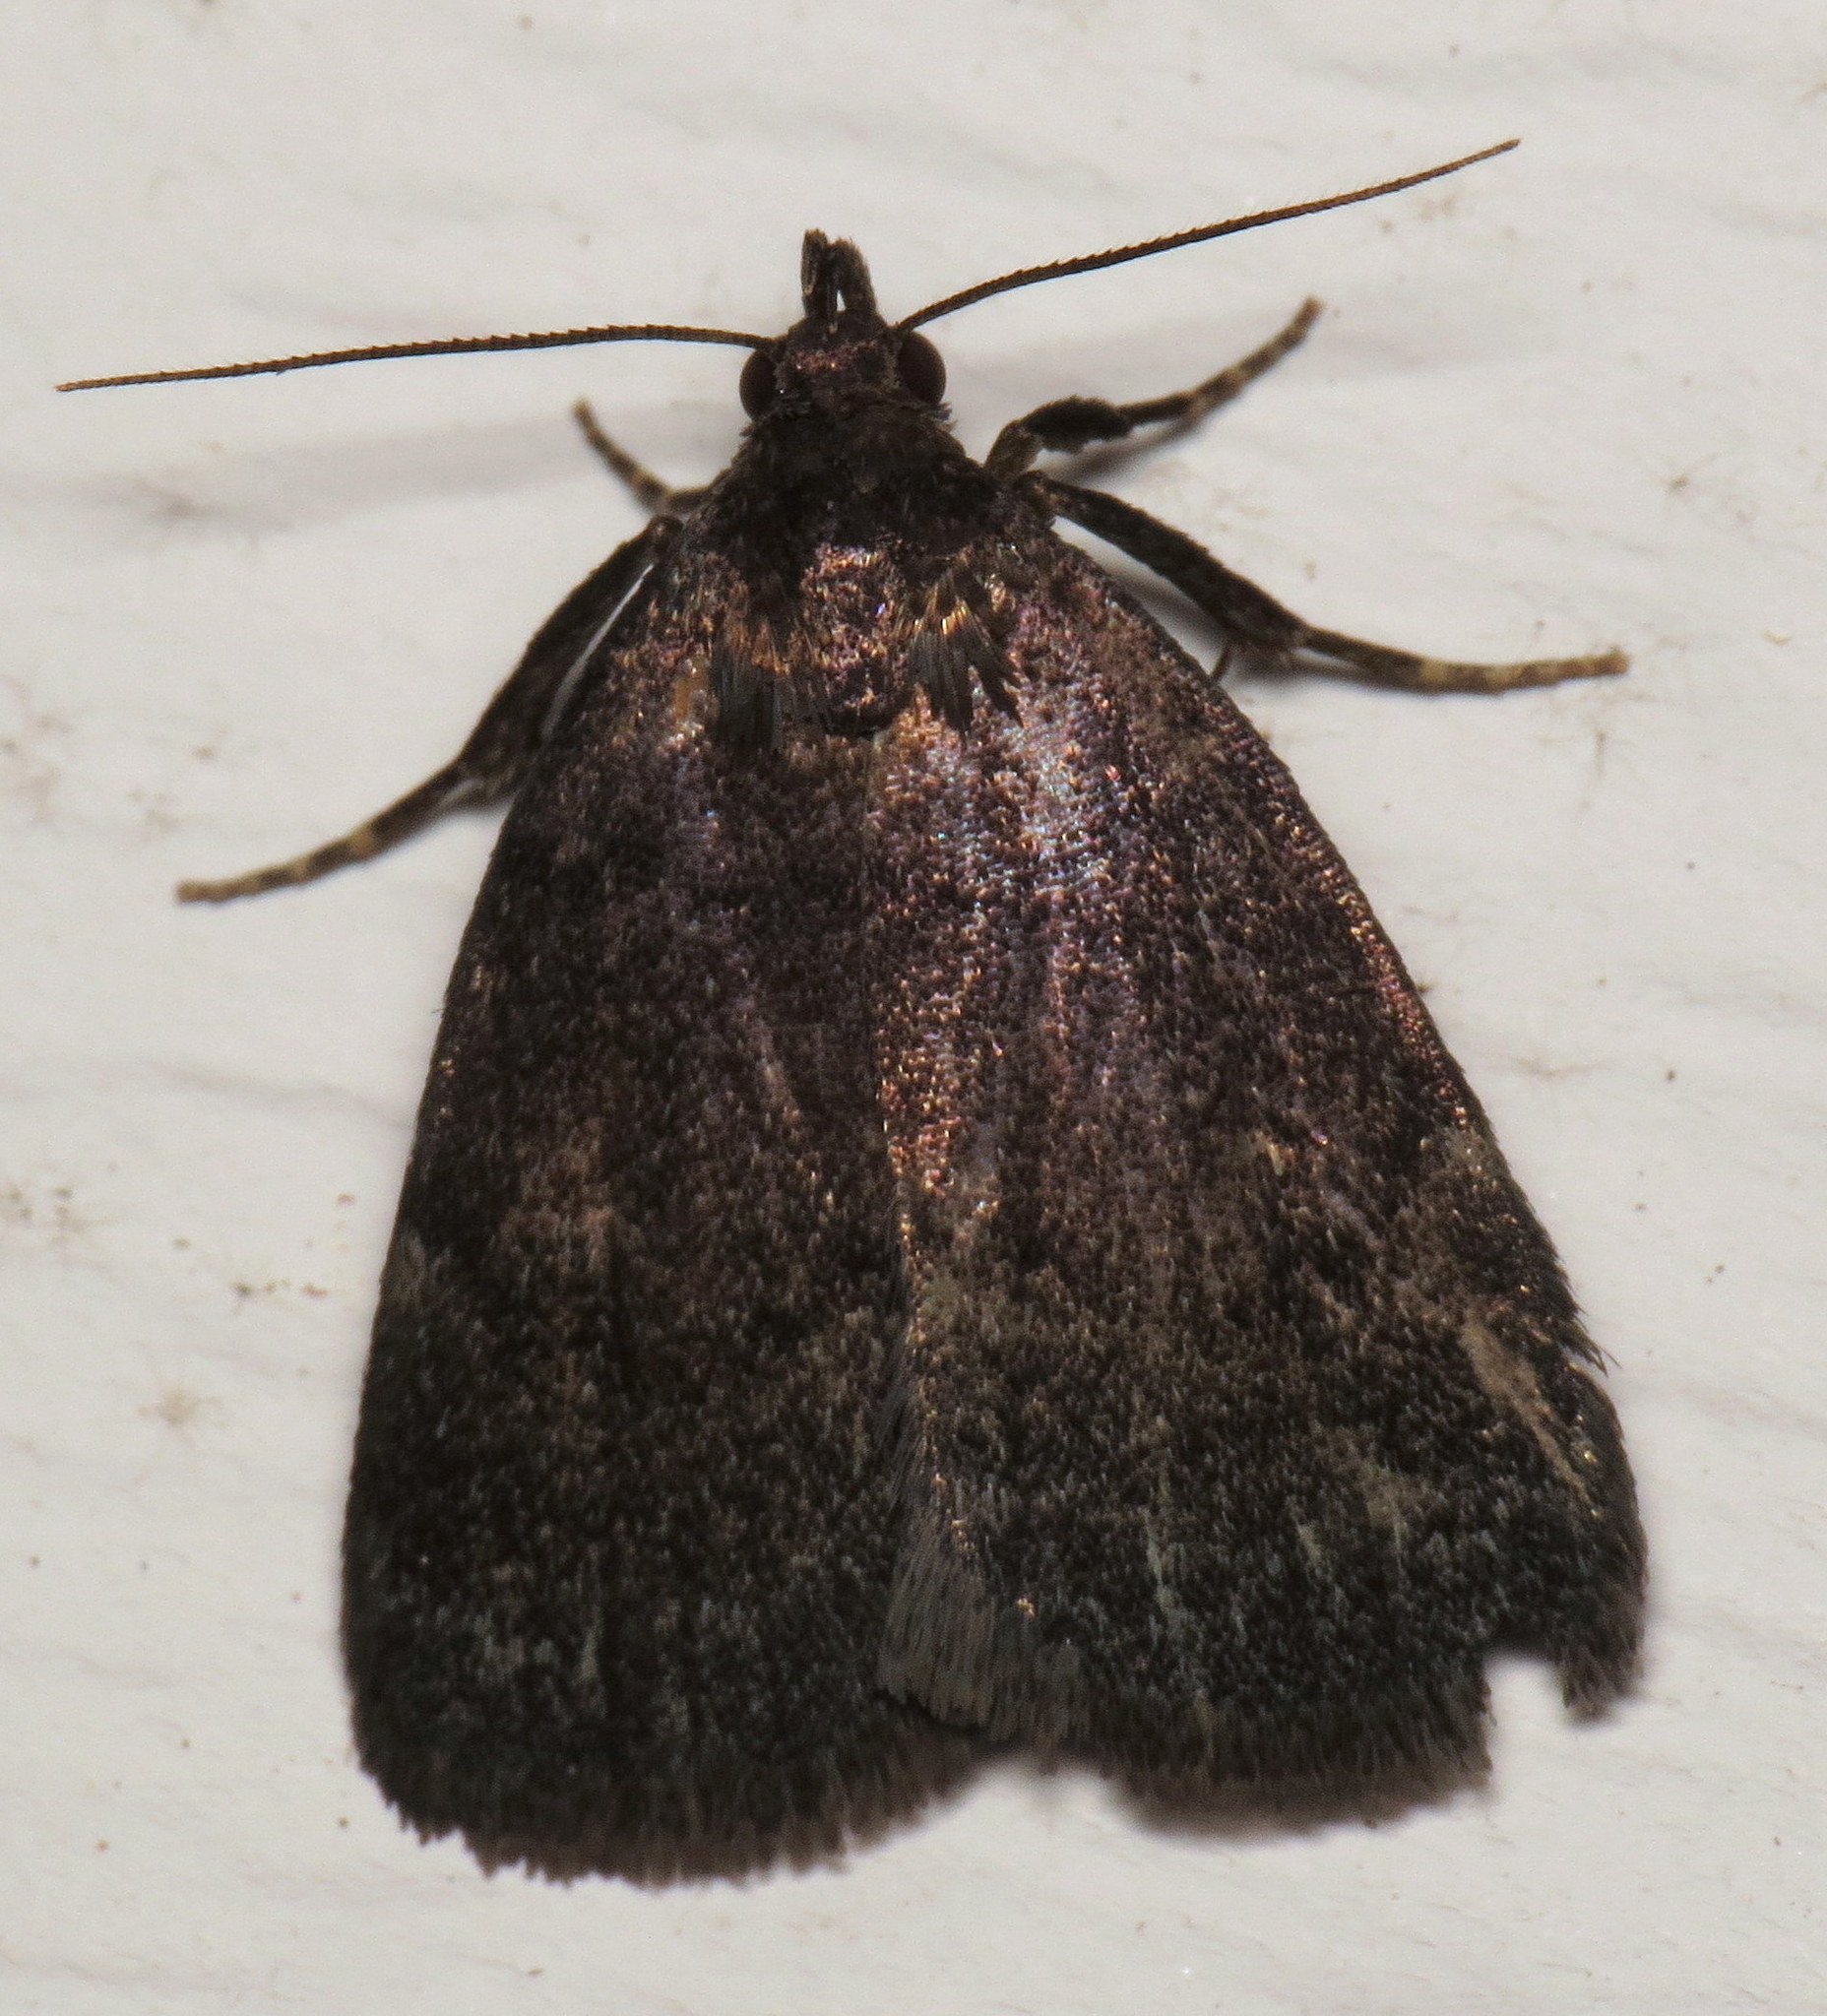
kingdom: Animalia
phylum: Arthropoda
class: Insecta
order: Lepidoptera
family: Erebidae
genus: Idia
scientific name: Idia rotundalis
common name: Rotund idia moth
